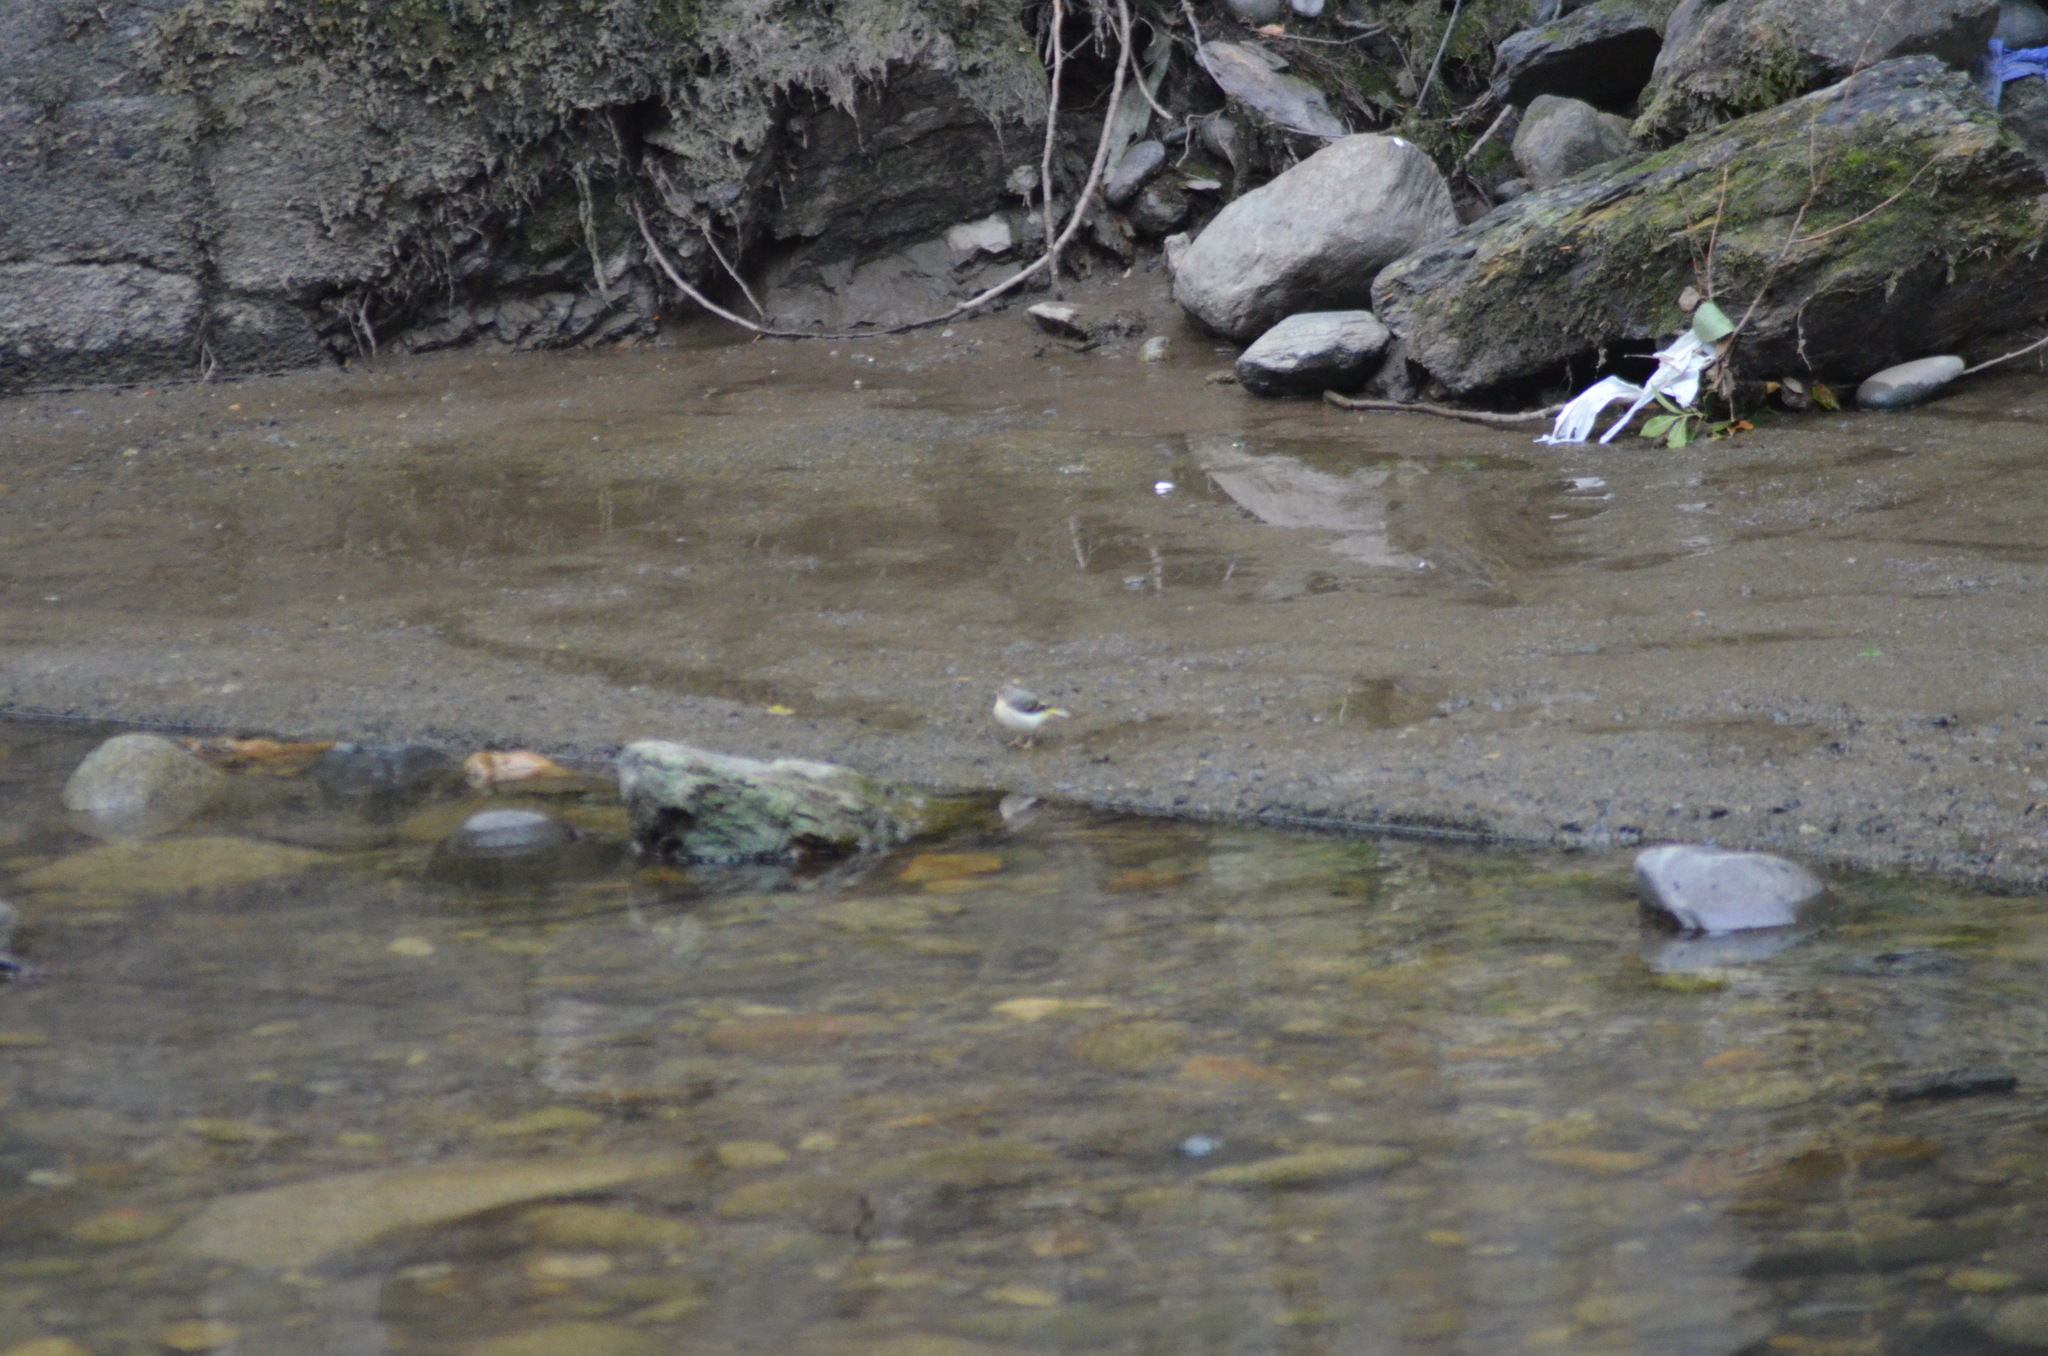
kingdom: Animalia
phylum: Chordata
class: Aves
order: Passeriformes
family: Motacillidae
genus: Motacilla
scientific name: Motacilla cinerea
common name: Grey wagtail
